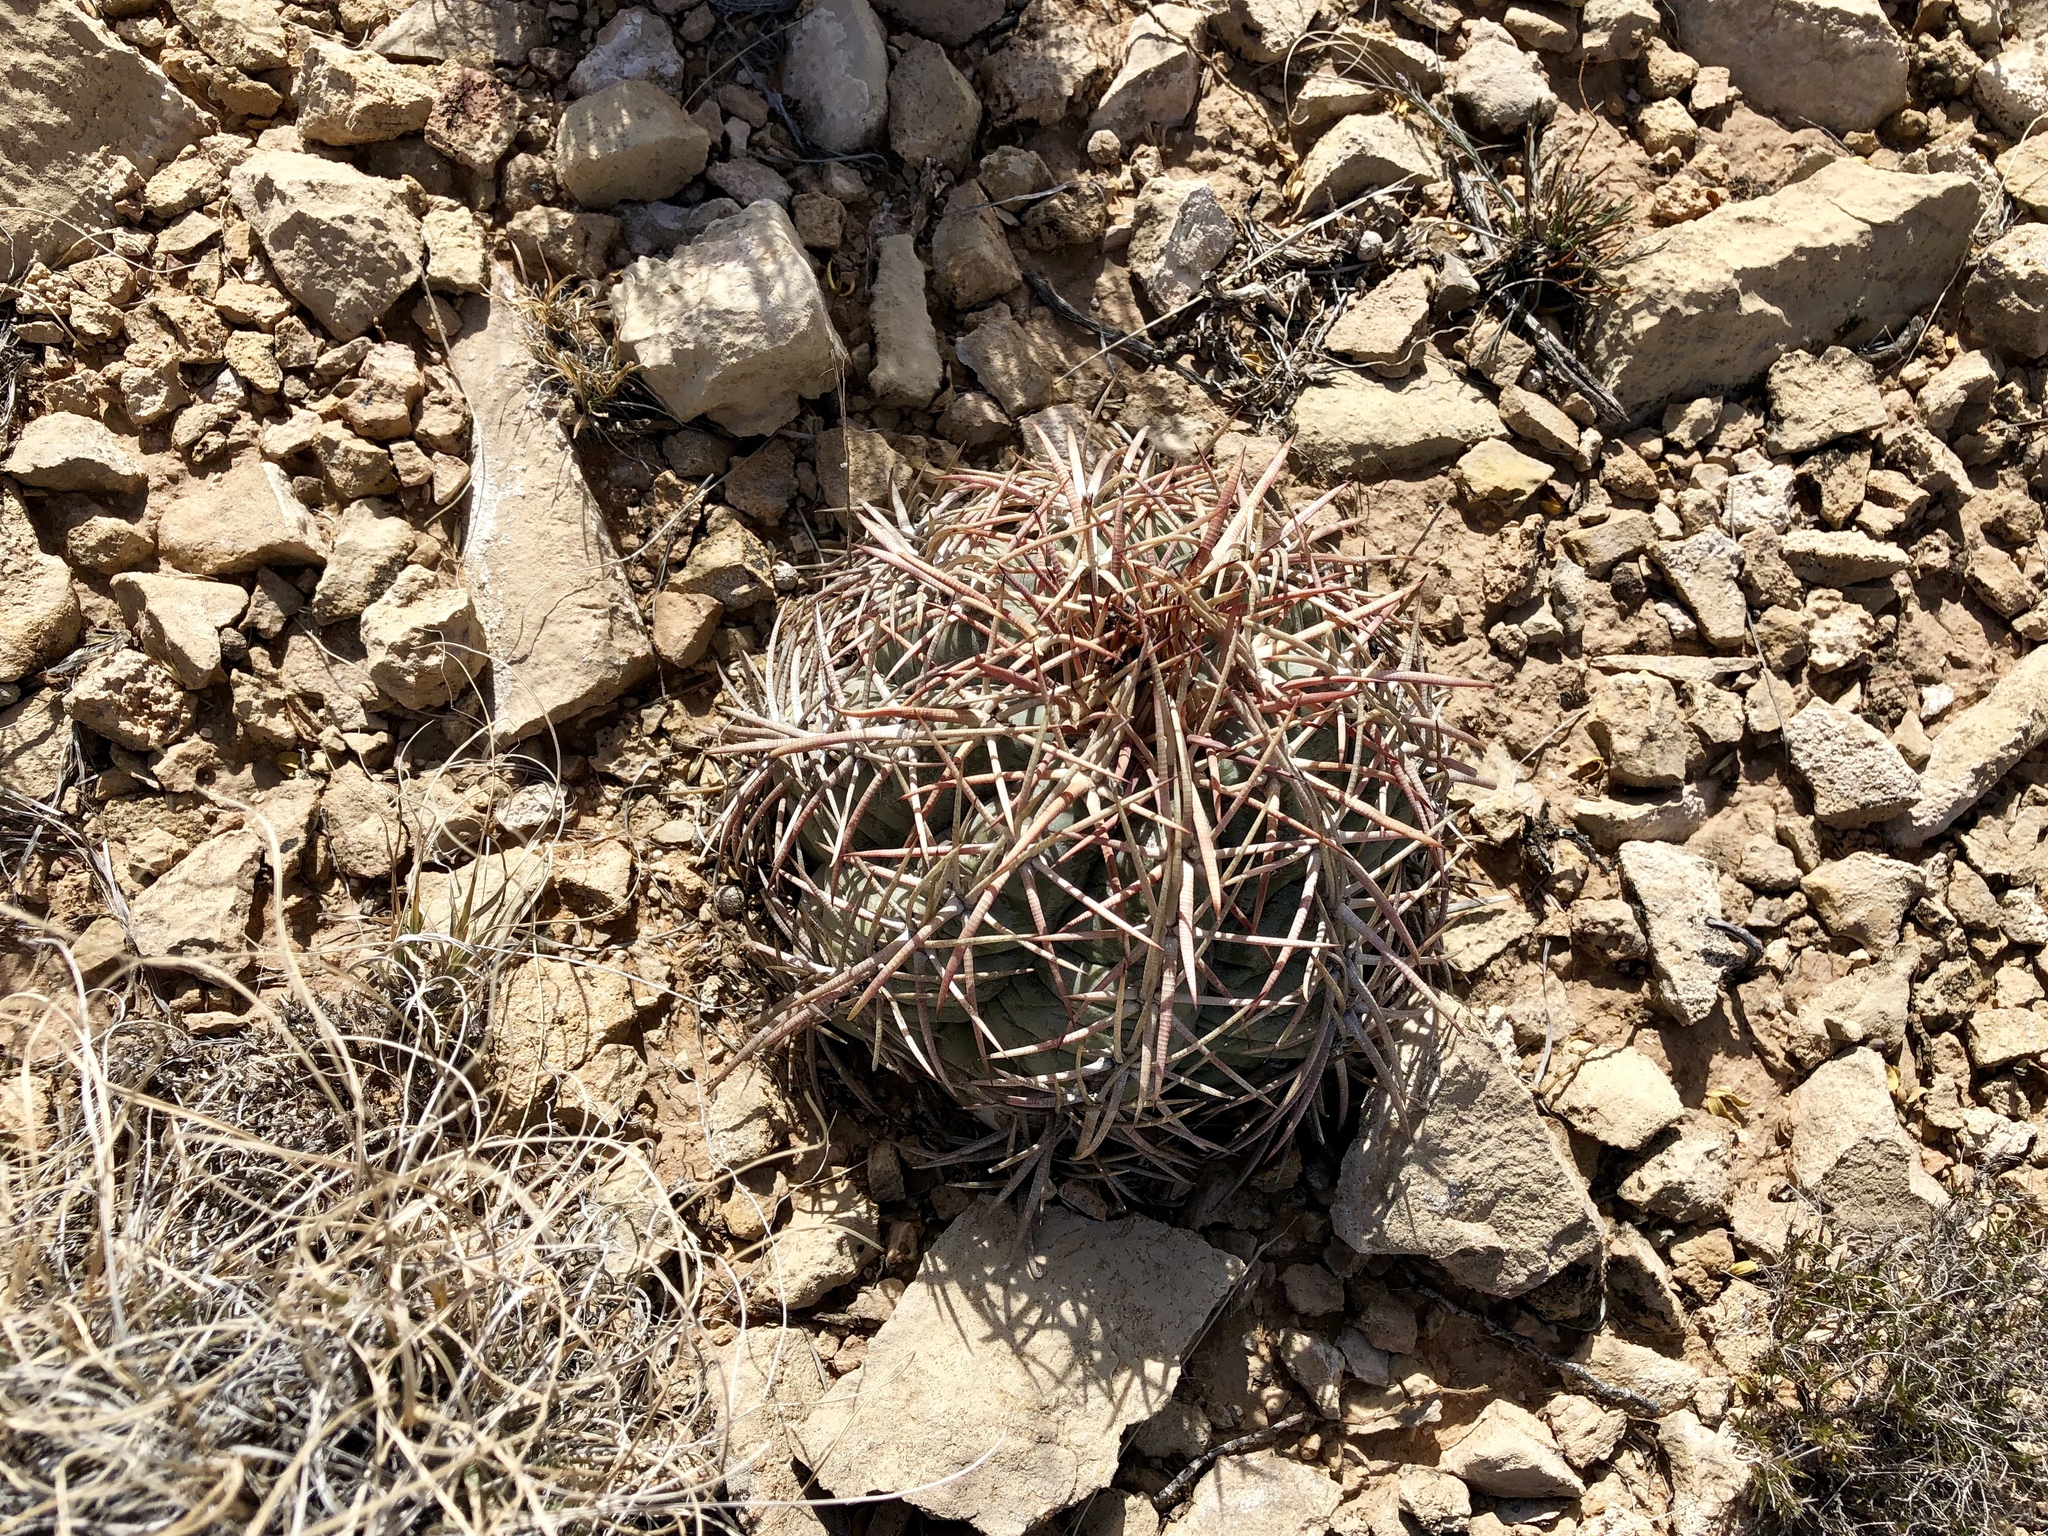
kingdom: Plantae
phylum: Tracheophyta
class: Magnoliopsida
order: Caryophyllales
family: Cactaceae
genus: Echinocactus
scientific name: Echinocactus horizonthalonius
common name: Devilshead
